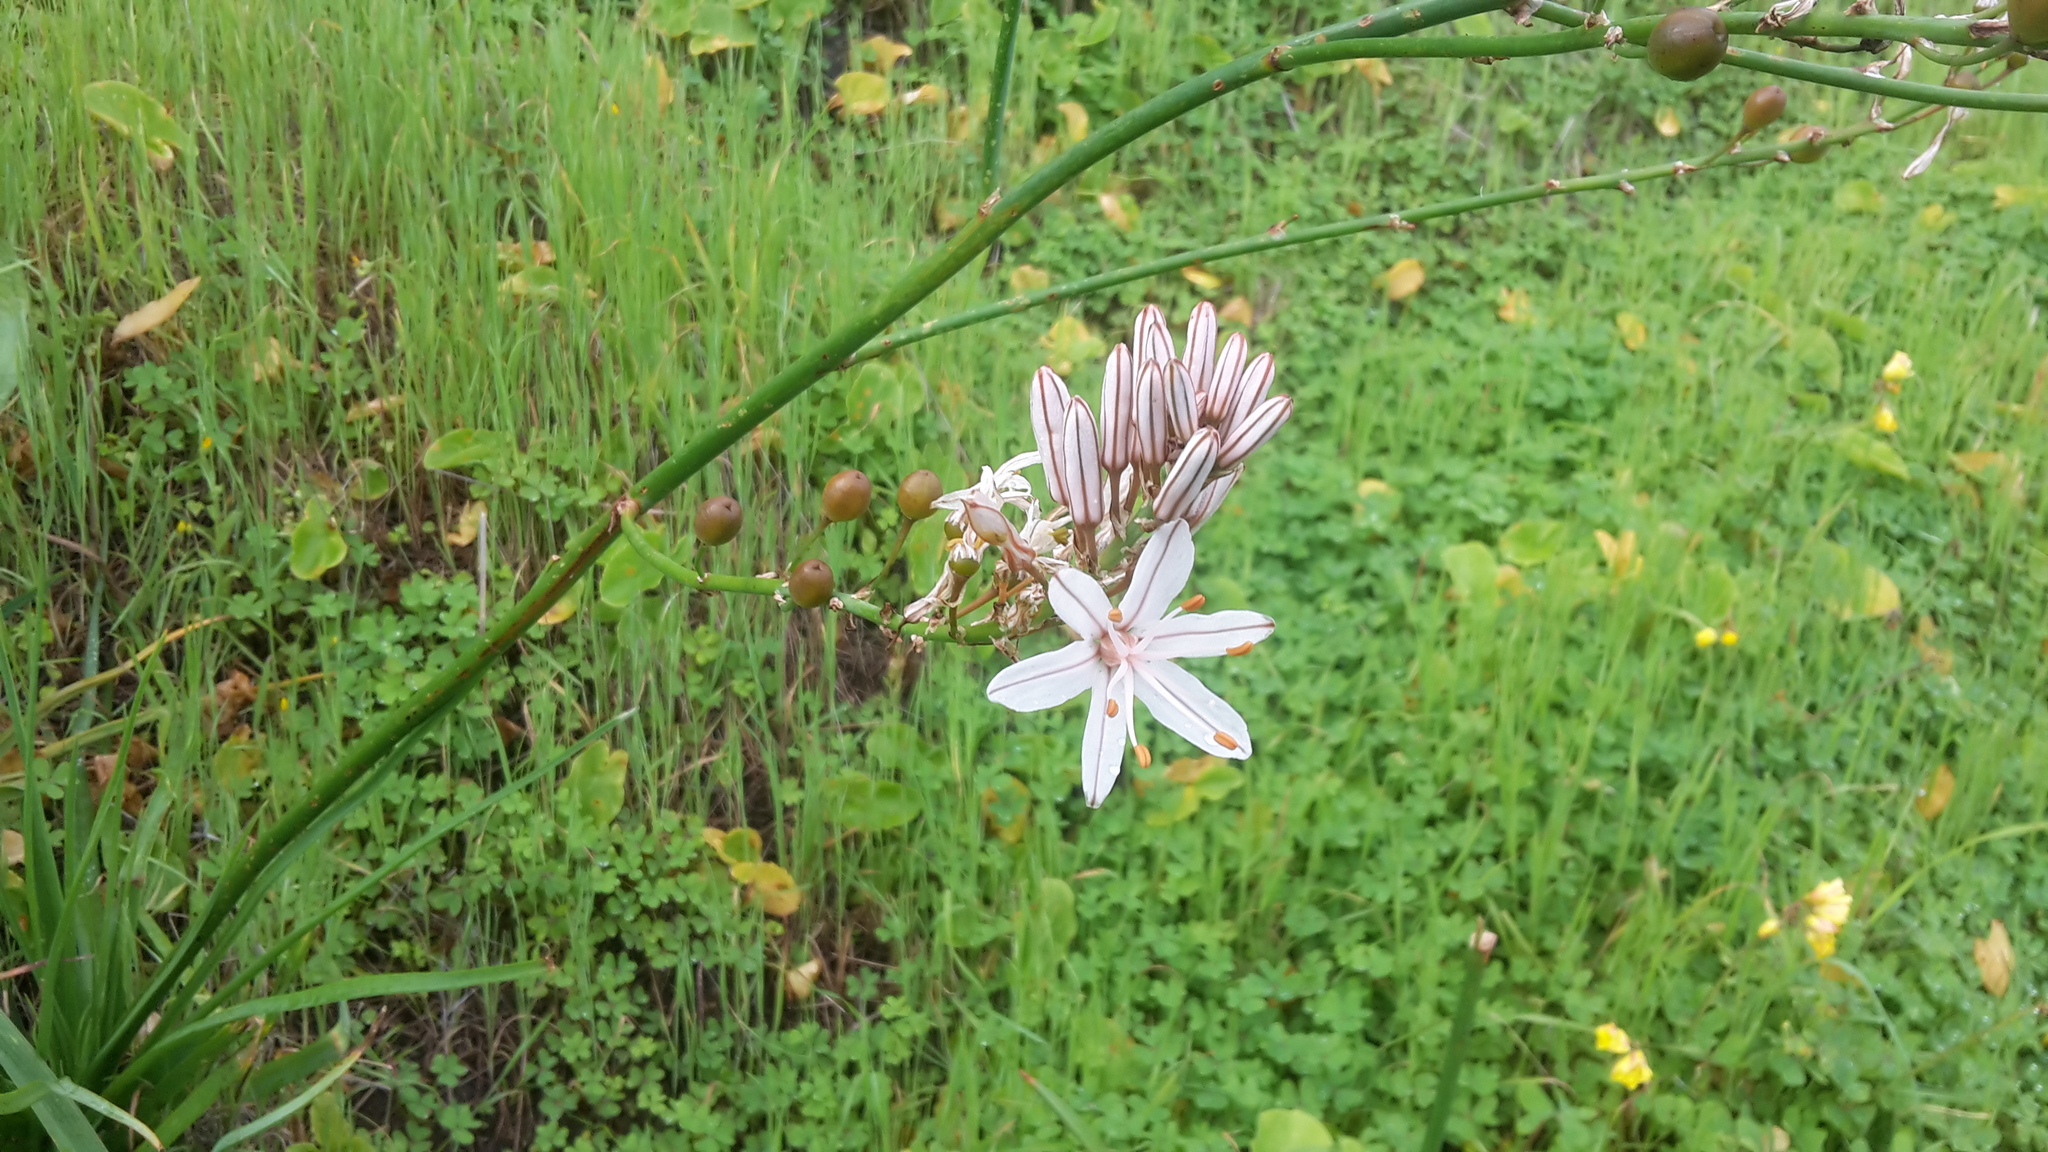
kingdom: Plantae
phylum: Tracheophyta
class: Liliopsida
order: Asparagales
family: Asphodelaceae
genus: Asphodelus
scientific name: Asphodelus ramosus
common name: Silverrod
